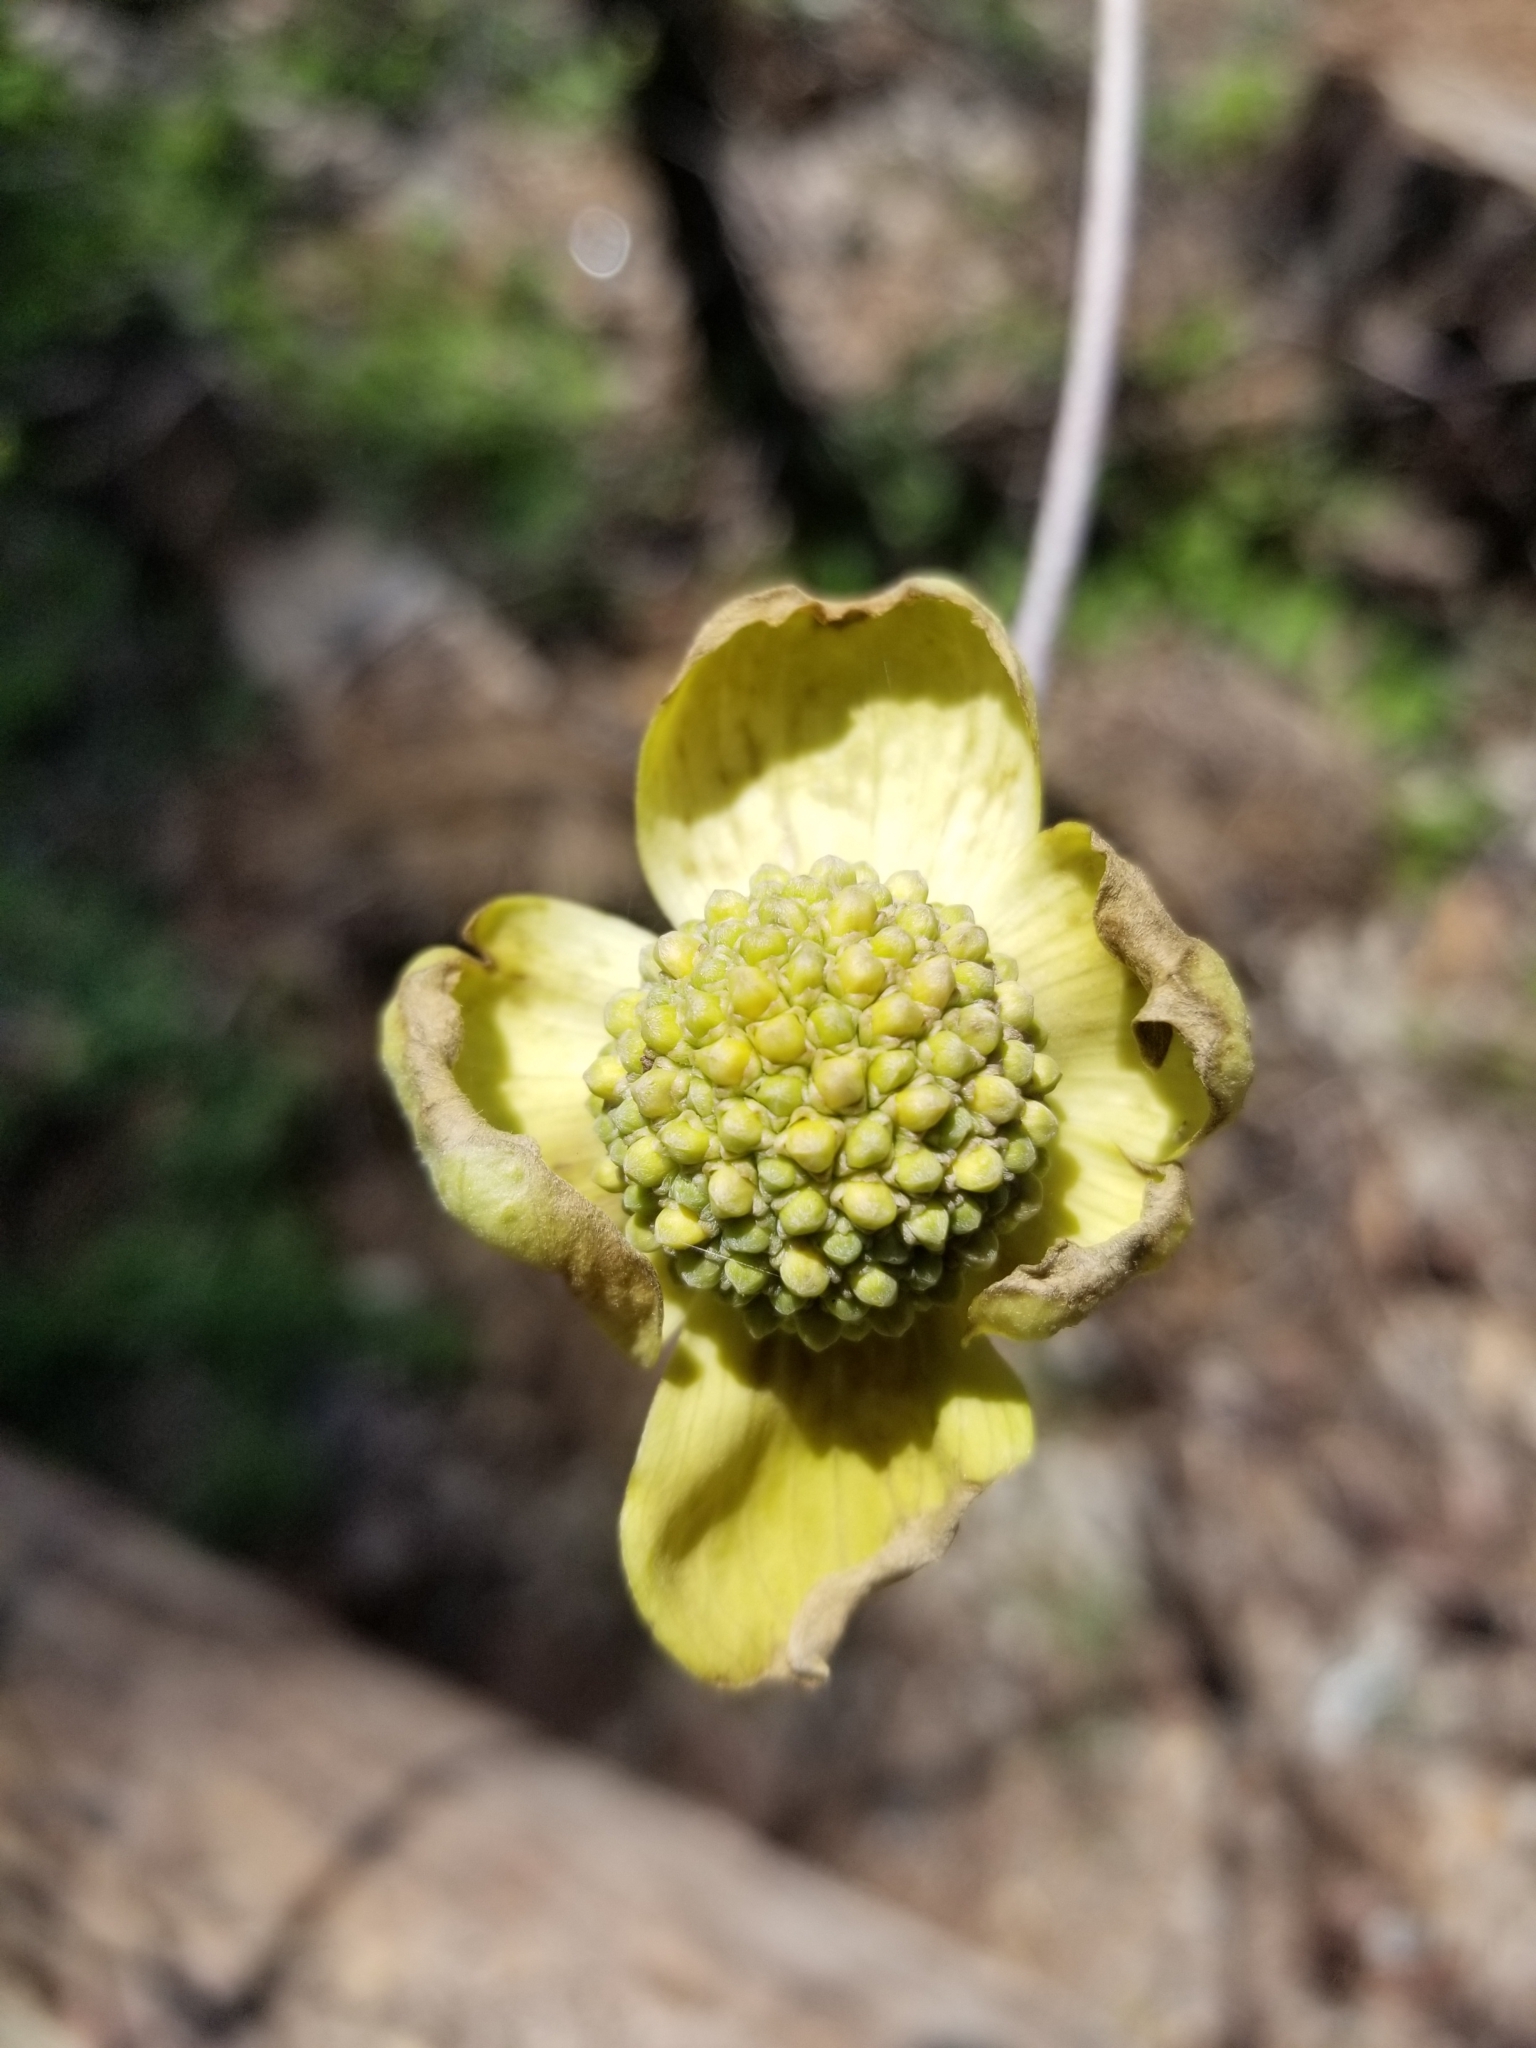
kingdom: Plantae
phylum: Tracheophyta
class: Magnoliopsida
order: Cornales
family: Cornaceae
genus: Cornus
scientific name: Cornus nuttallii
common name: Pacific dogwood
